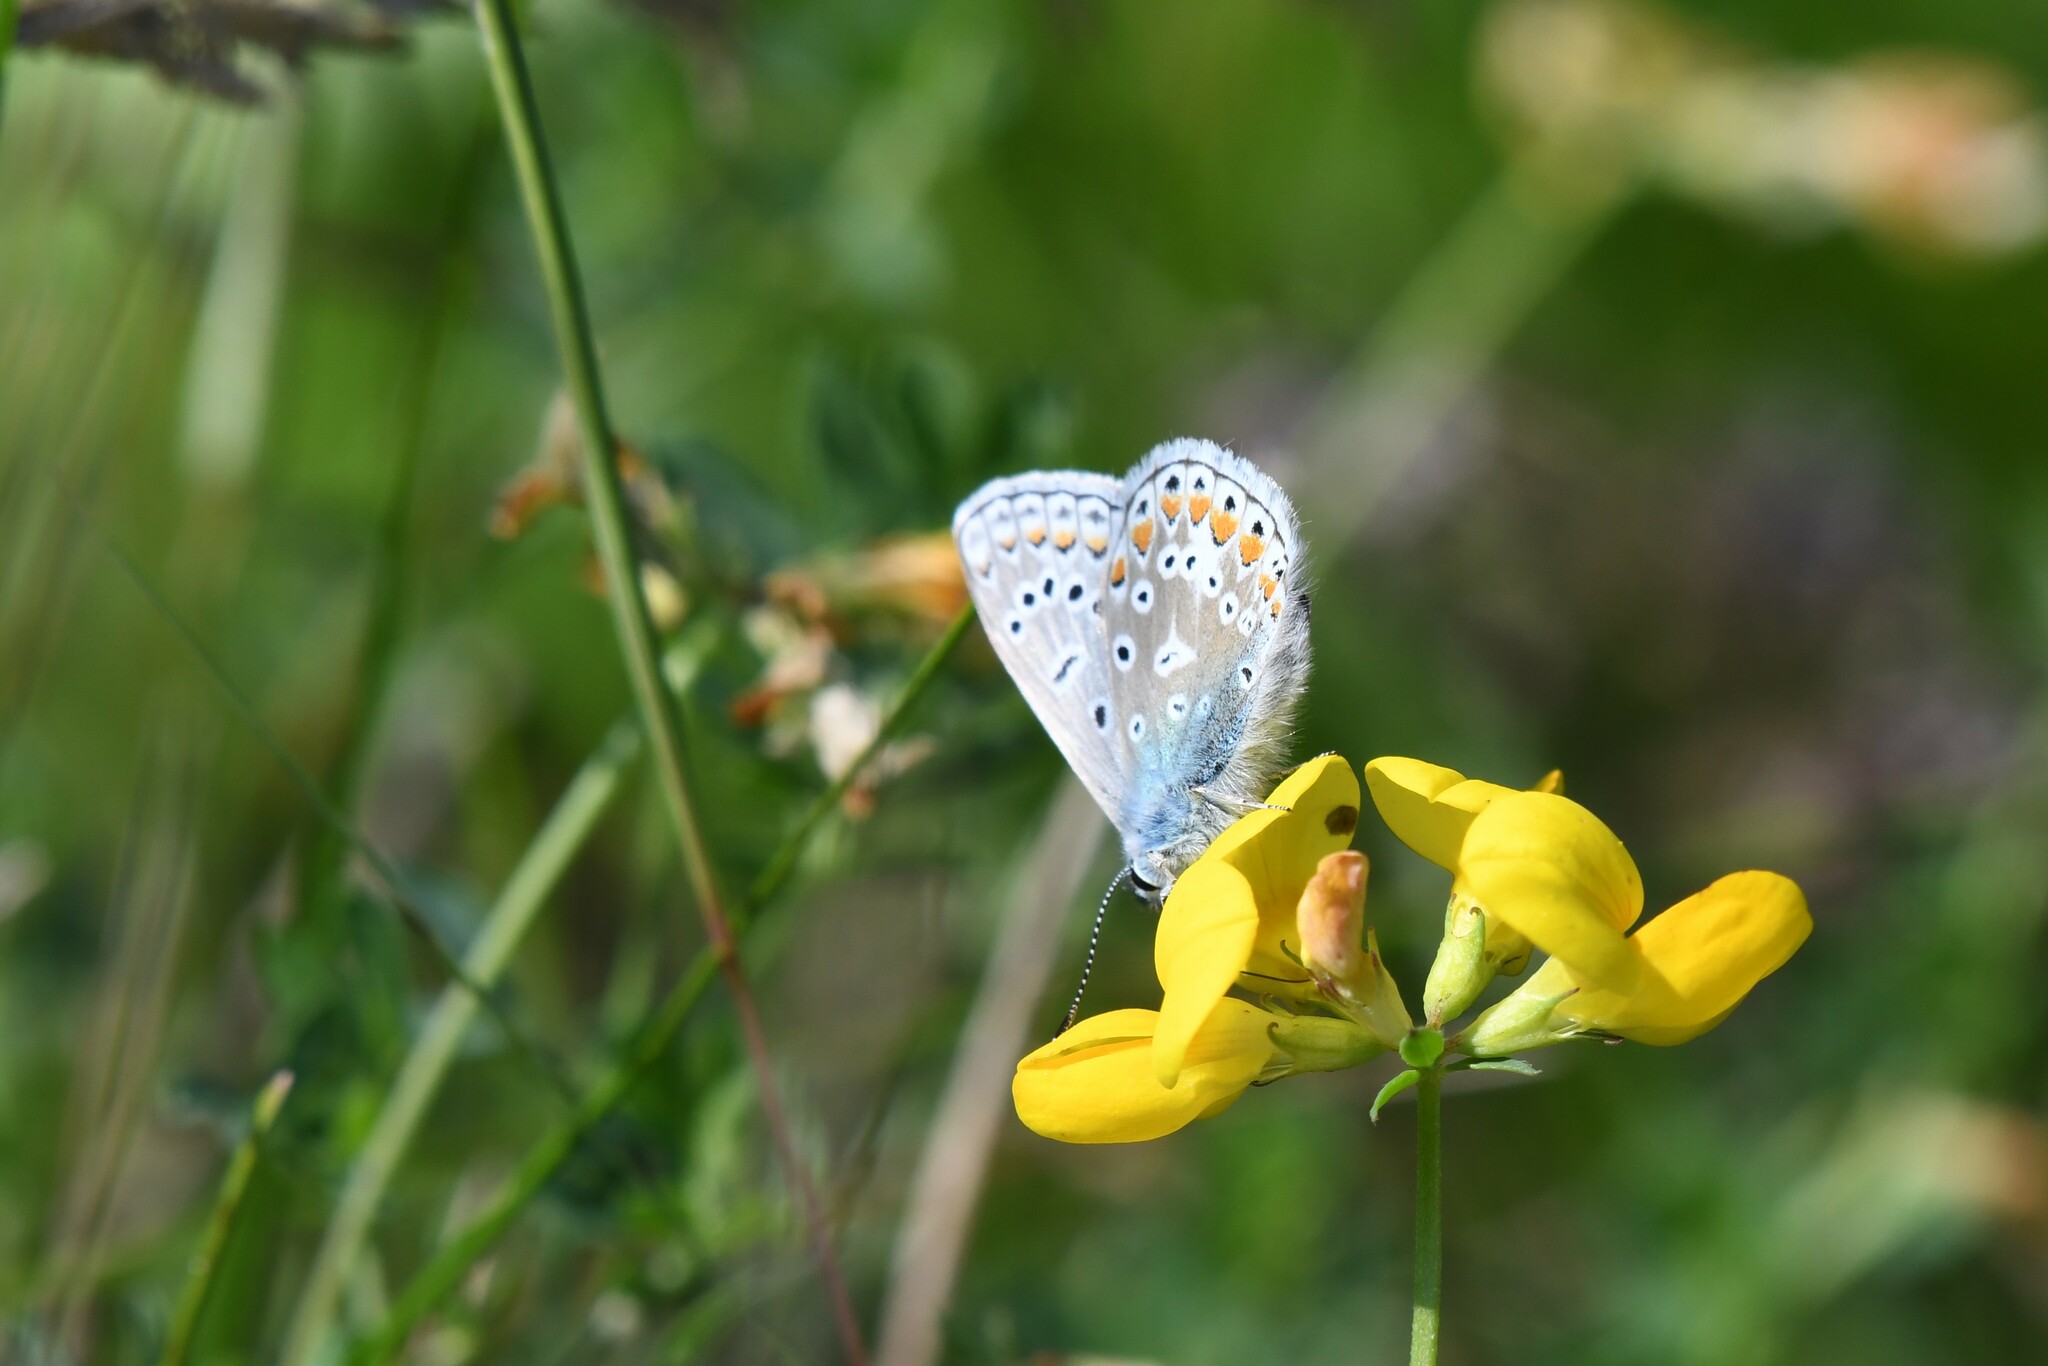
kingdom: Animalia
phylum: Arthropoda
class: Insecta
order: Lepidoptera
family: Lycaenidae
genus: Polyommatus
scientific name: Polyommatus icarus
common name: Common blue
